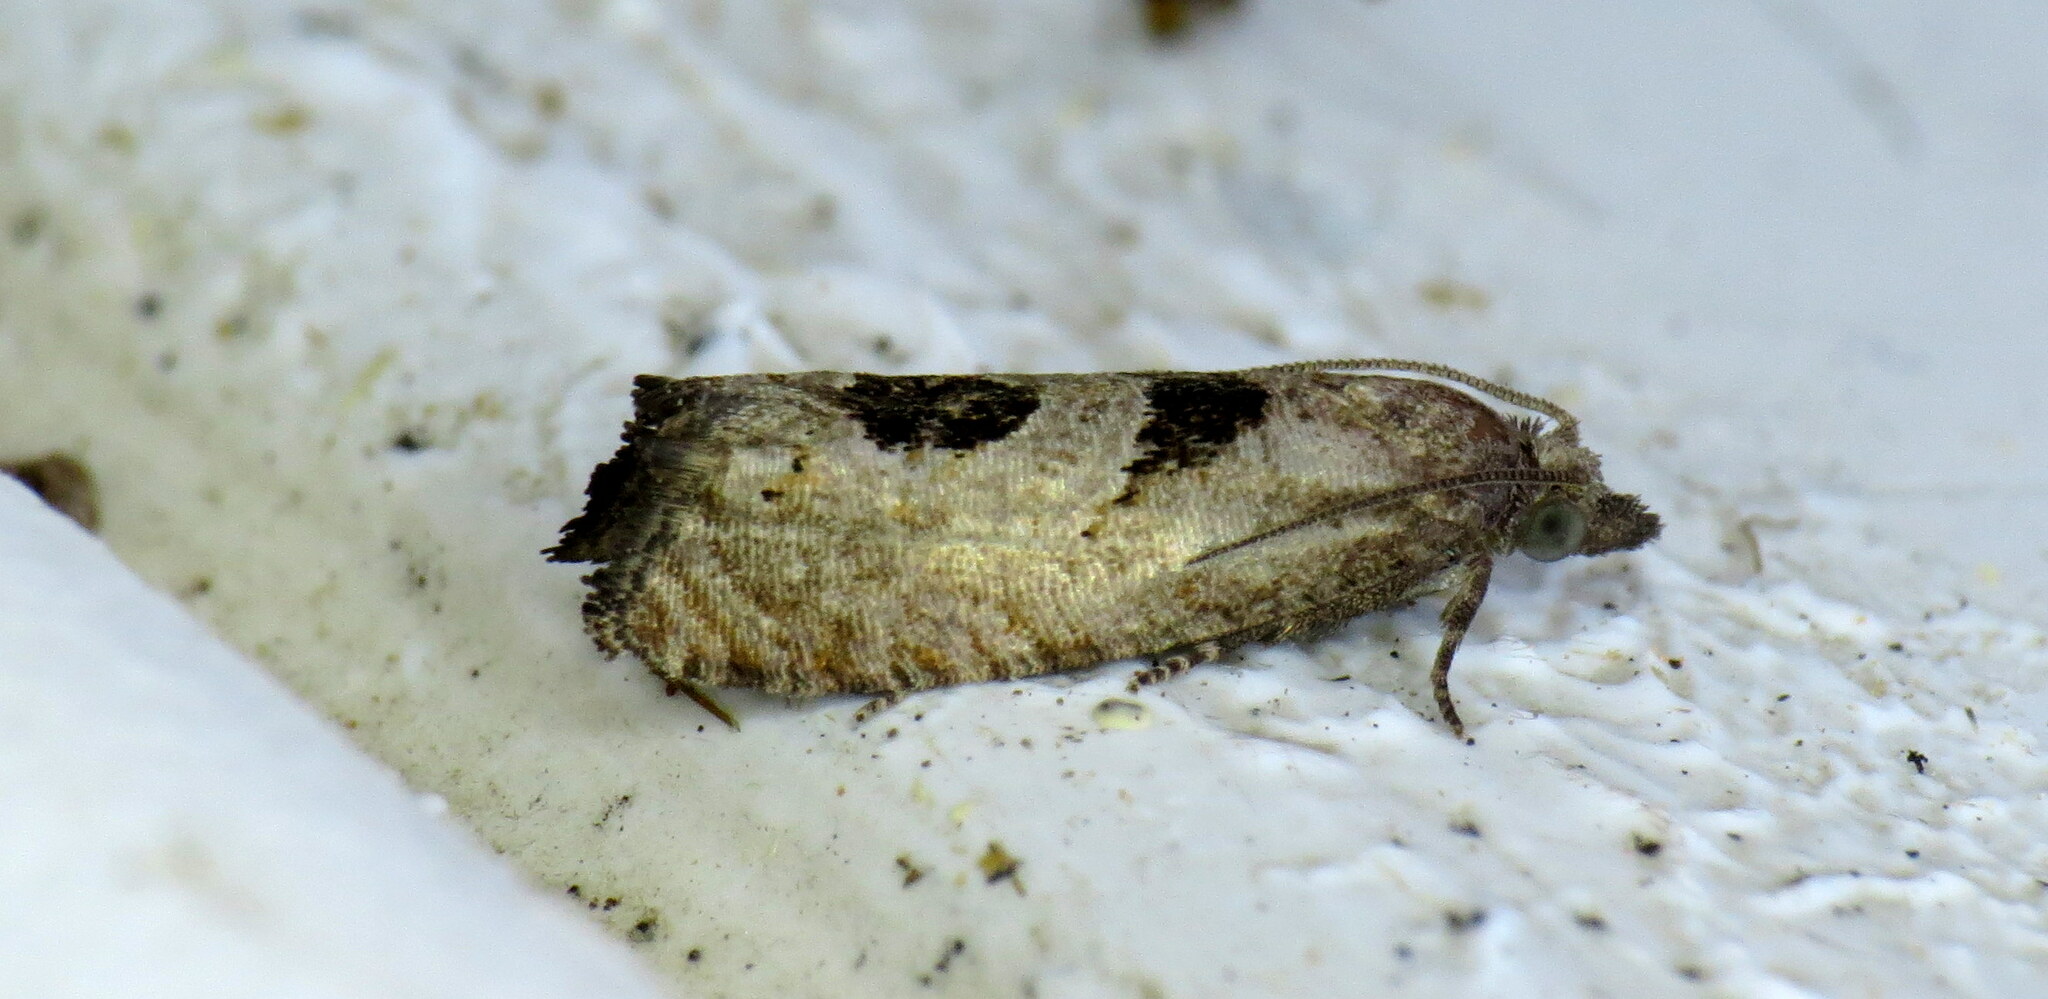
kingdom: Animalia
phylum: Arthropoda
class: Insecta
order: Lepidoptera
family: Tortricidae
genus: Eucosma
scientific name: Eucosma tomonana
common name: Aster-head eucosma moth
